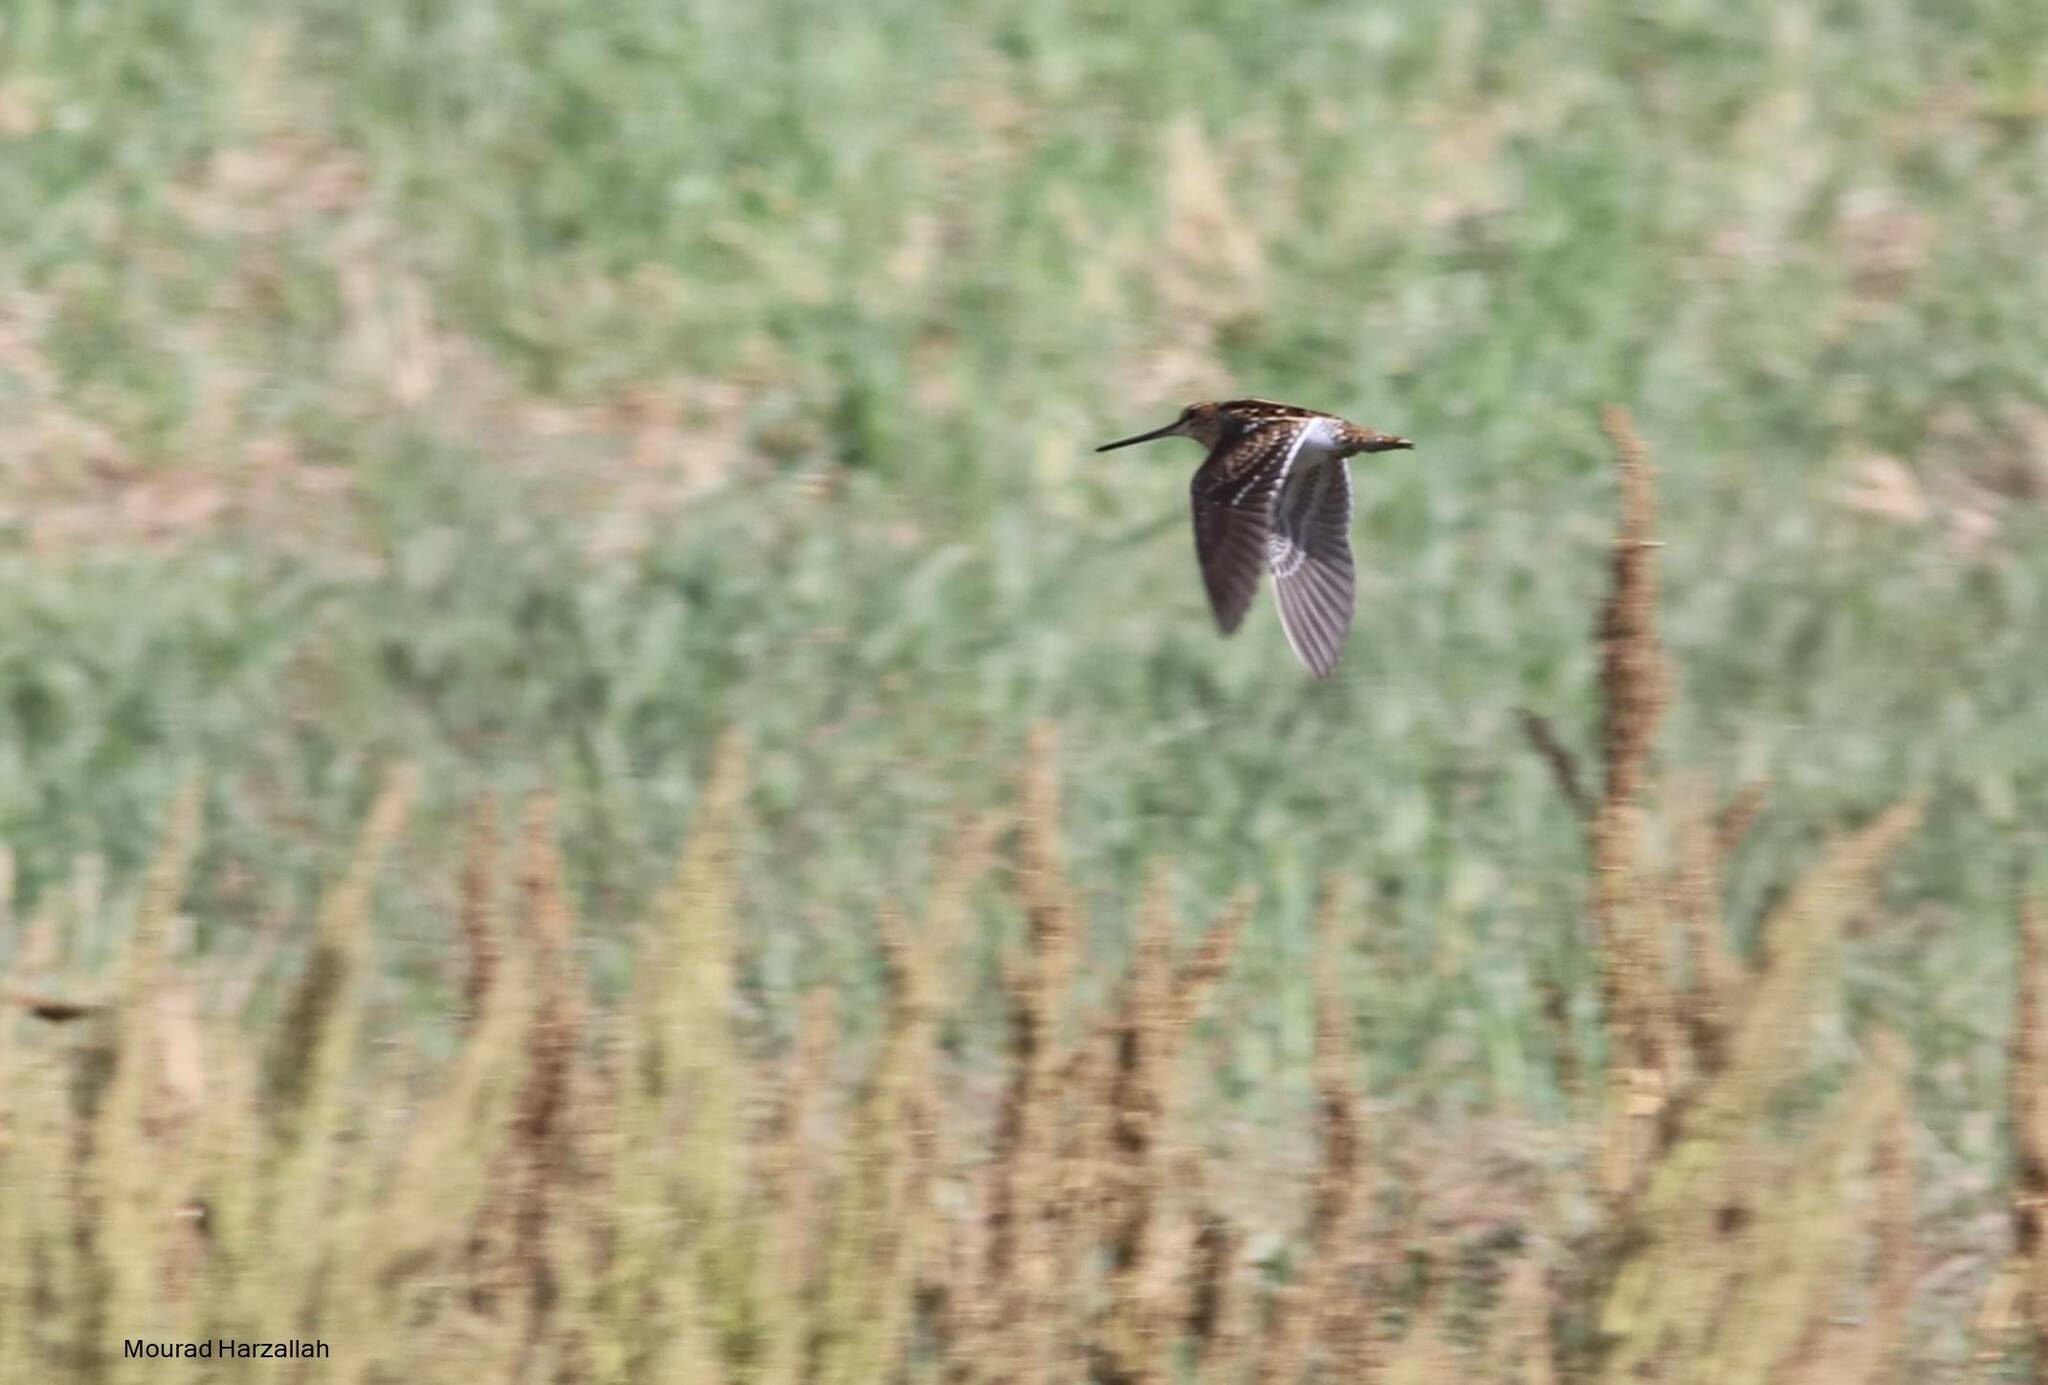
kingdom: Animalia
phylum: Chordata
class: Aves
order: Charadriiformes
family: Scolopacidae
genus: Gallinago
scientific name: Gallinago gallinago
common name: Common snipe
